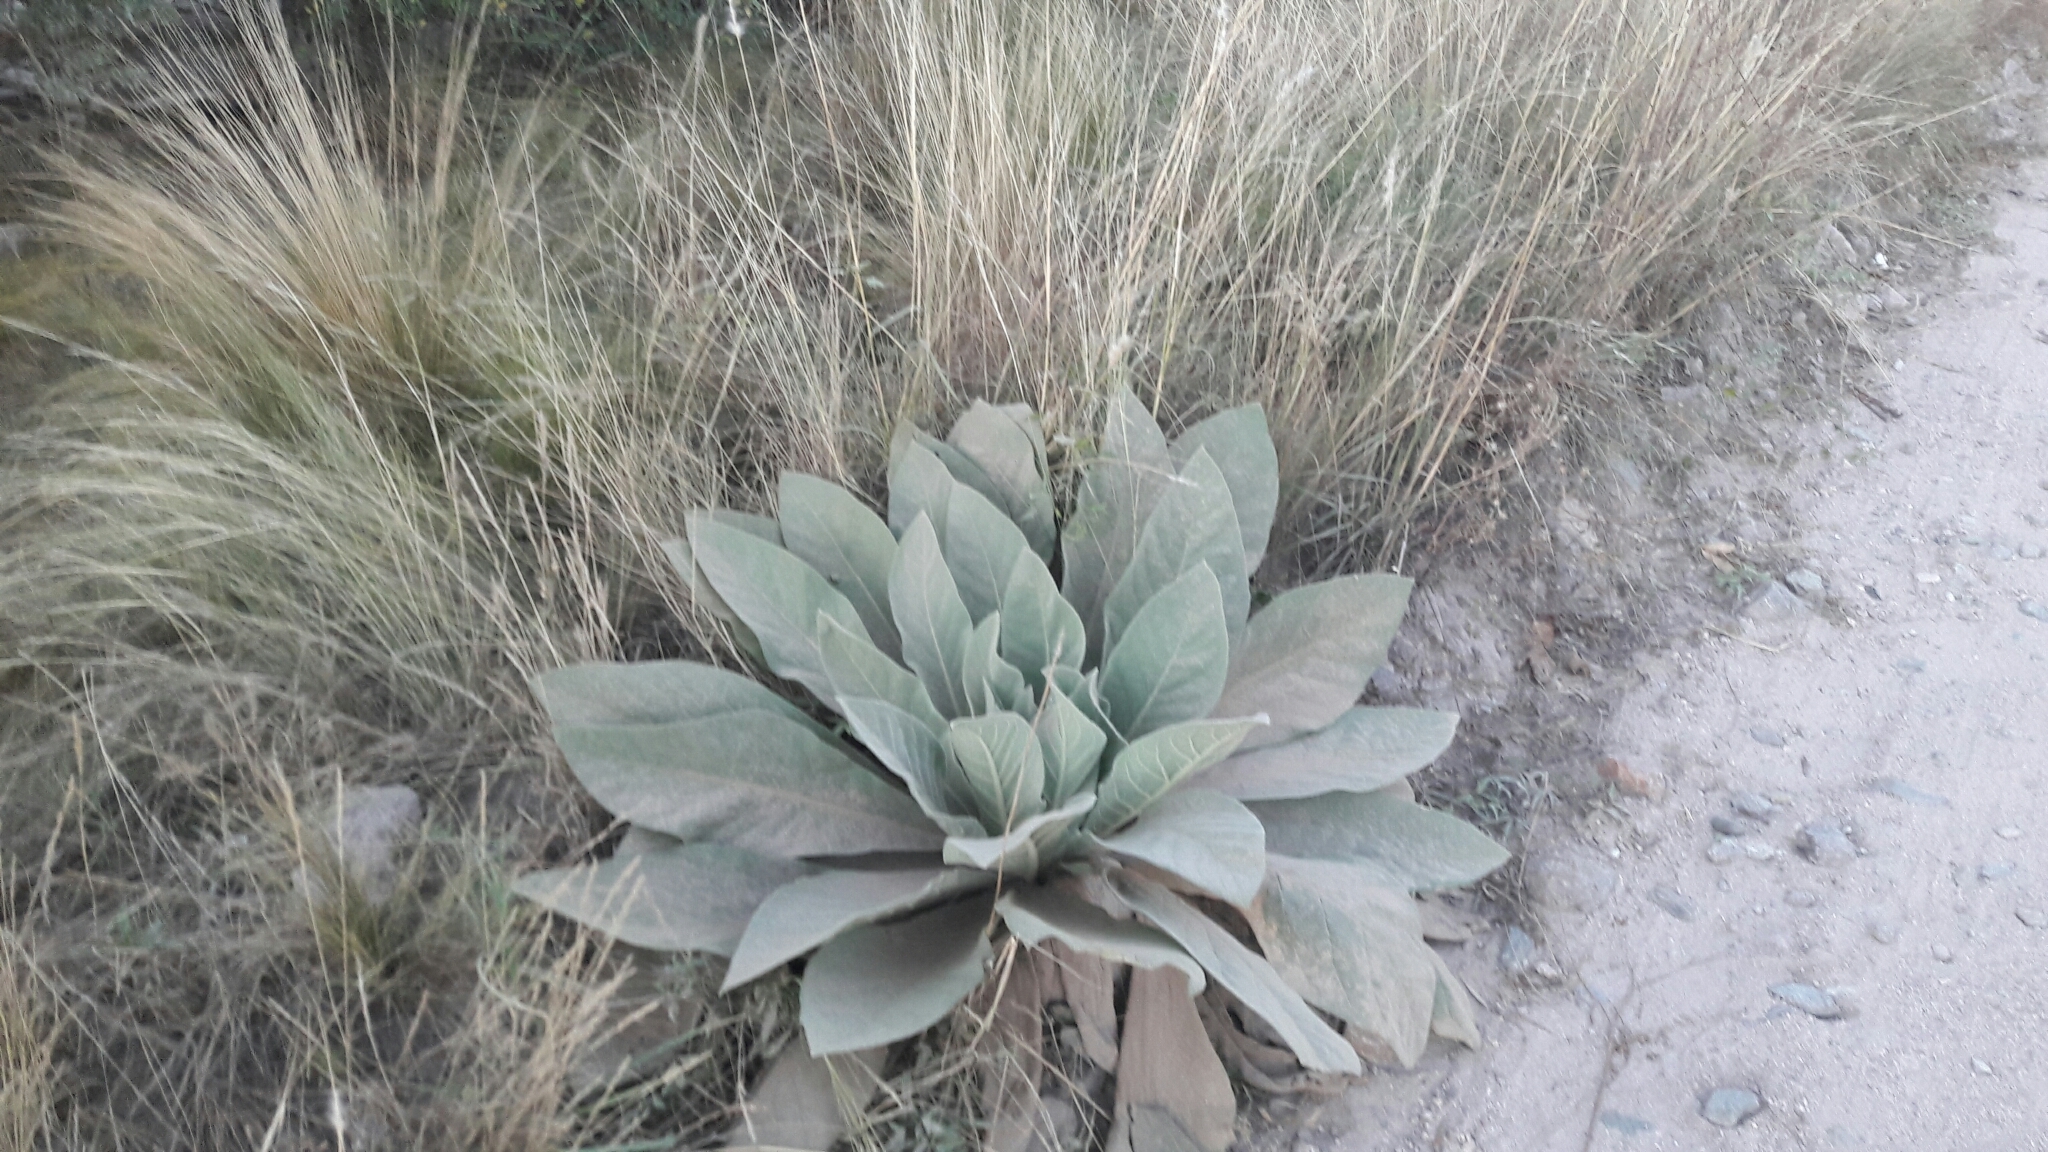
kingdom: Plantae
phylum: Tracheophyta
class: Magnoliopsida
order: Lamiales
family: Scrophulariaceae
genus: Verbascum
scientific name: Verbascum thapsus
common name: Common mullein
